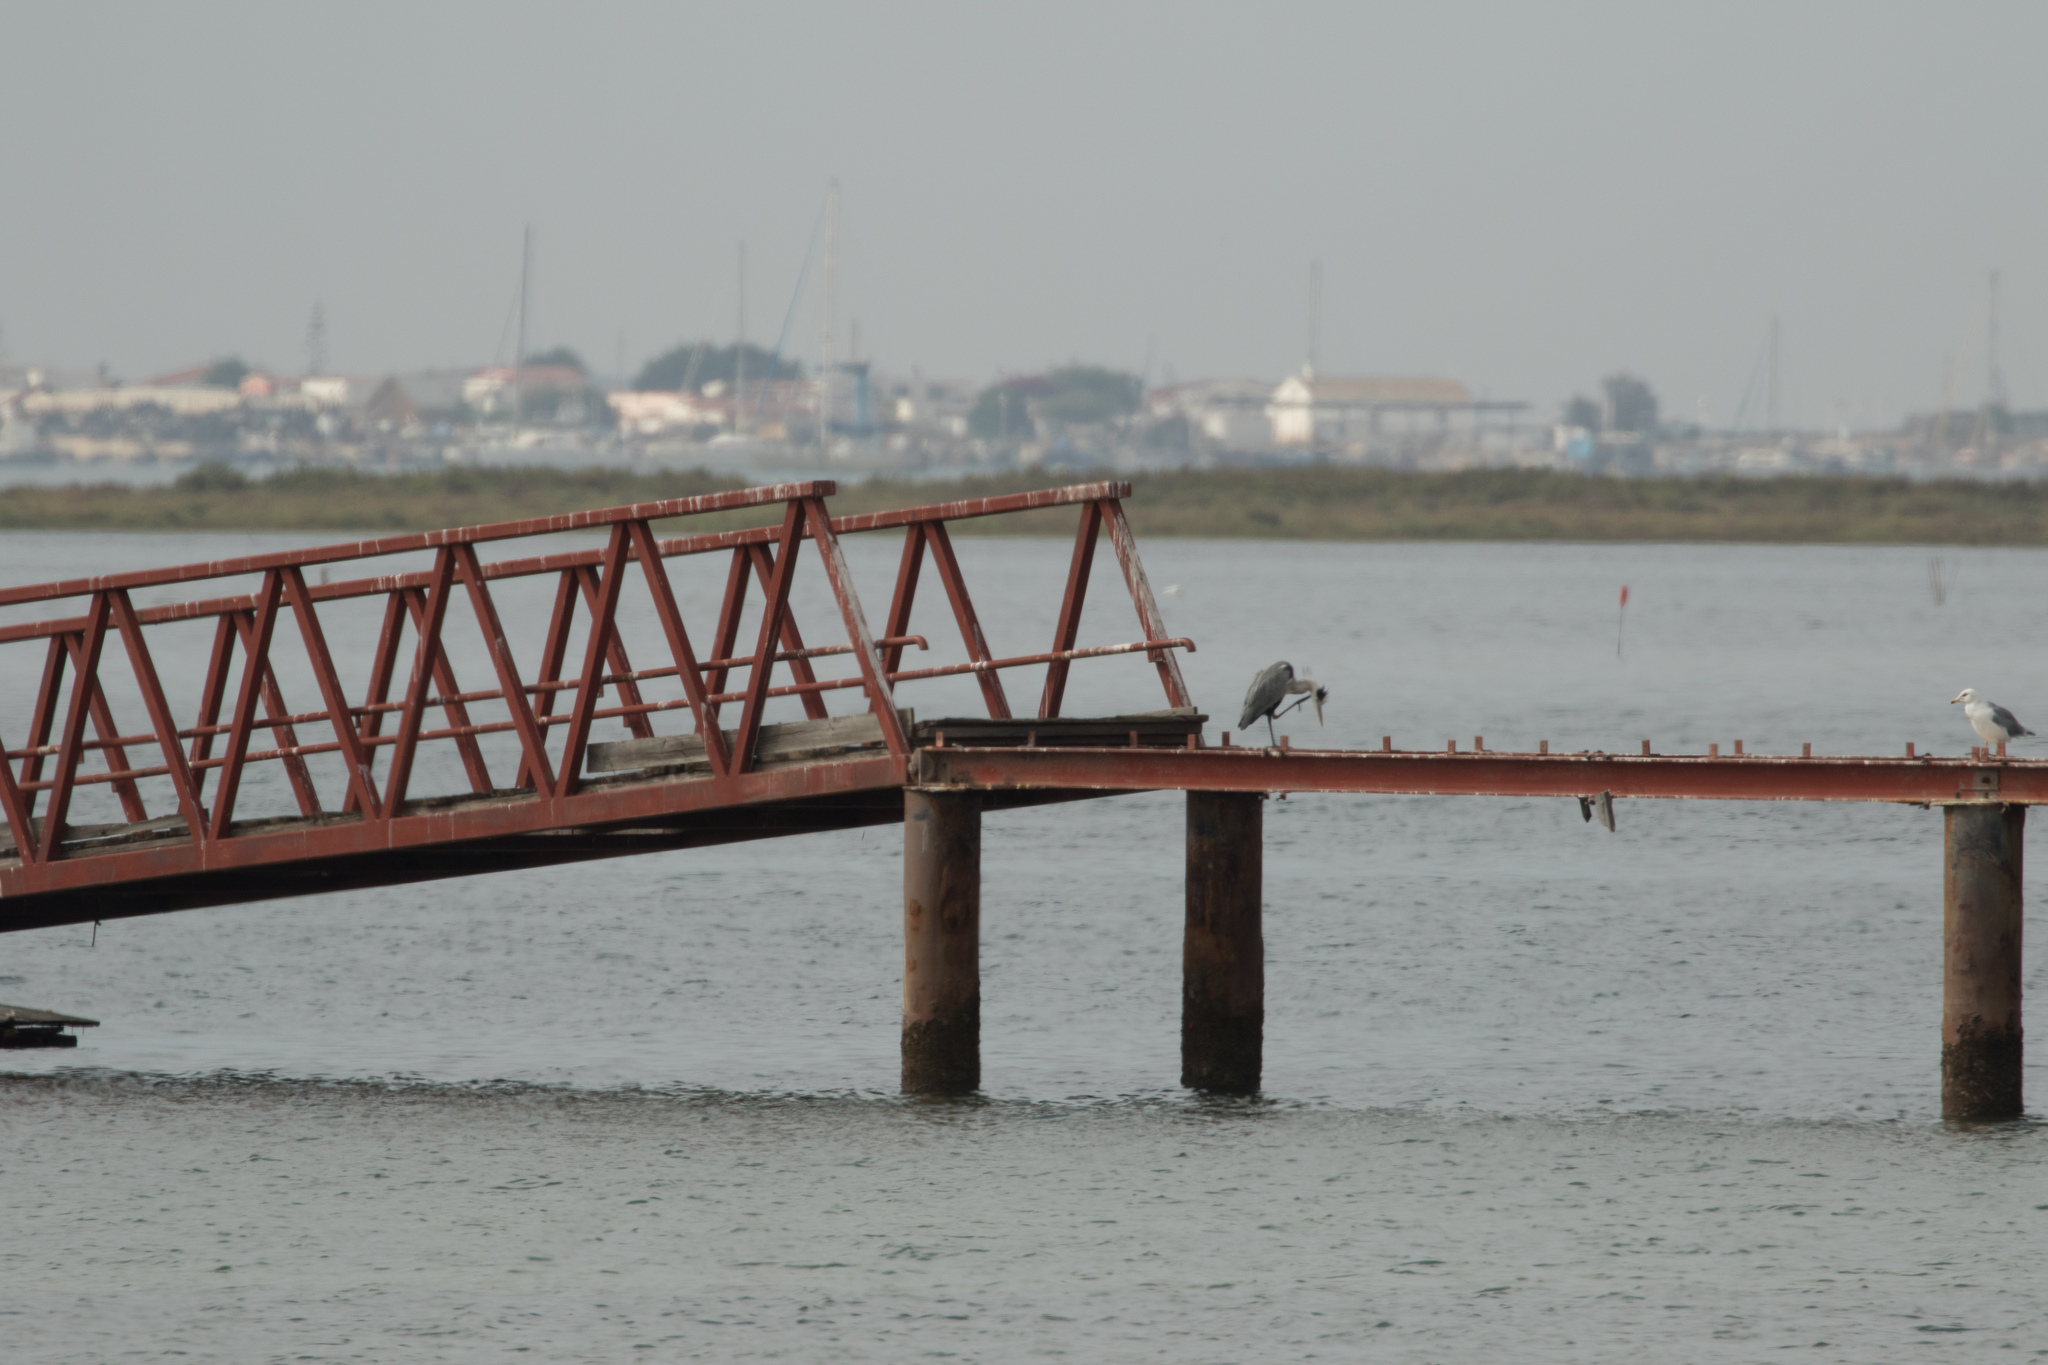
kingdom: Animalia
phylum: Chordata
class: Aves
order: Pelecaniformes
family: Ardeidae
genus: Ardea
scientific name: Ardea cinerea
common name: Grey heron
